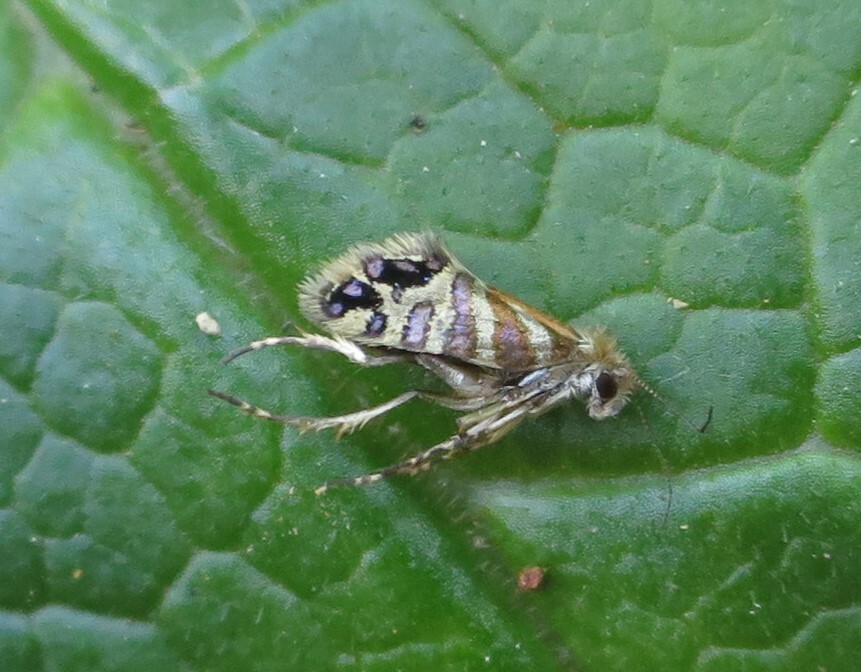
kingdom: Animalia
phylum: Arthropoda
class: Insecta
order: Lepidoptera
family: Micropterigidae
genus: Sabatinca
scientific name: Sabatinca doroxena
